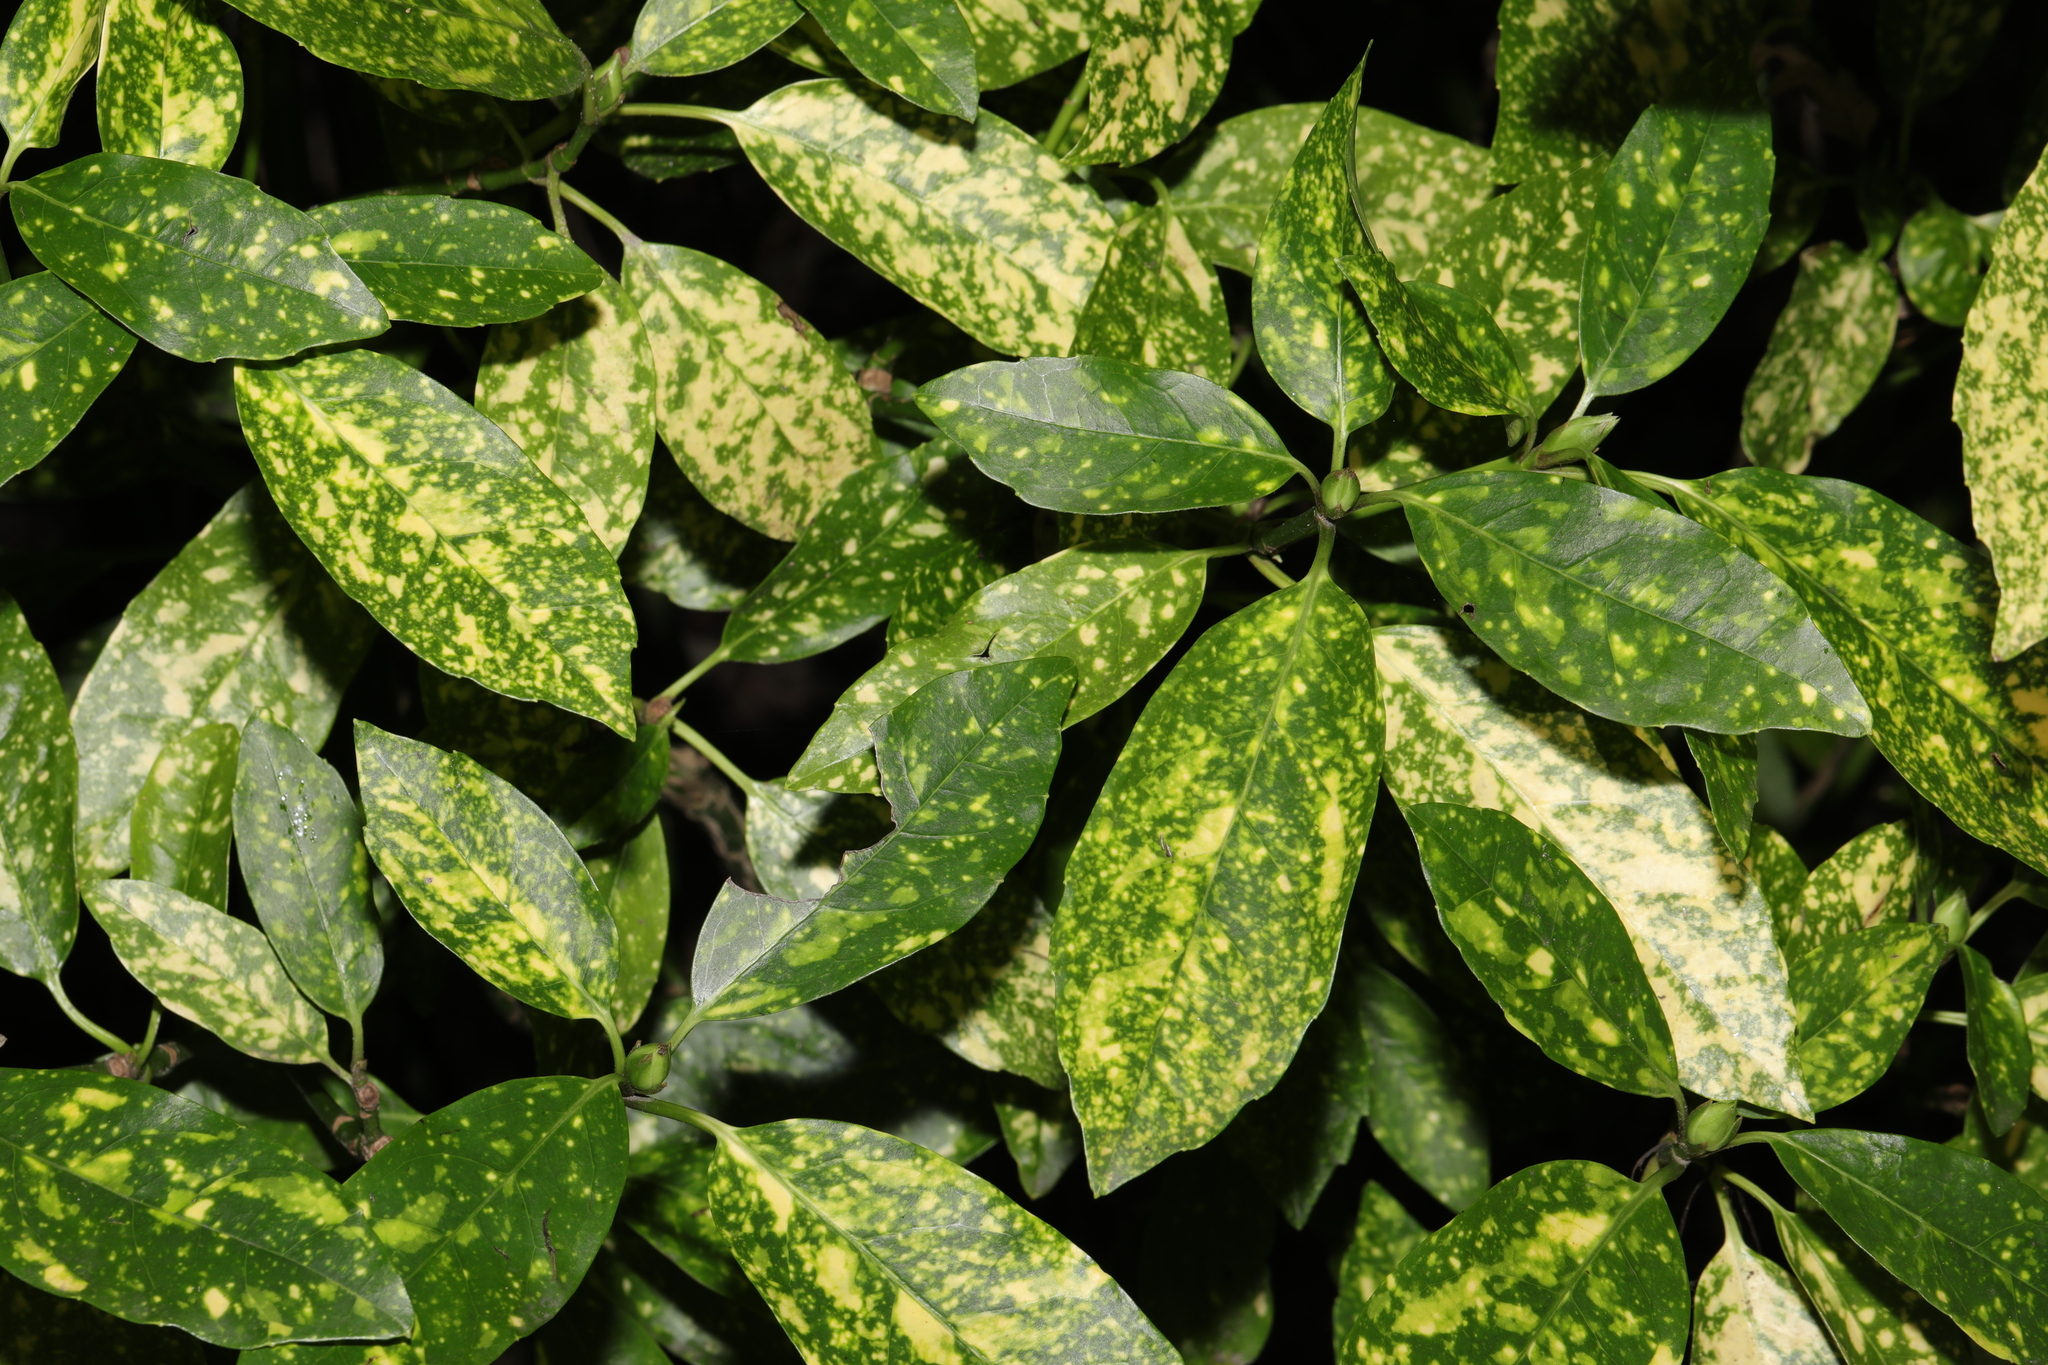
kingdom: Plantae
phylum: Tracheophyta
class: Magnoliopsida
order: Garryales
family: Garryaceae
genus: Aucuba
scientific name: Aucuba japonica
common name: Spotted-laurel
